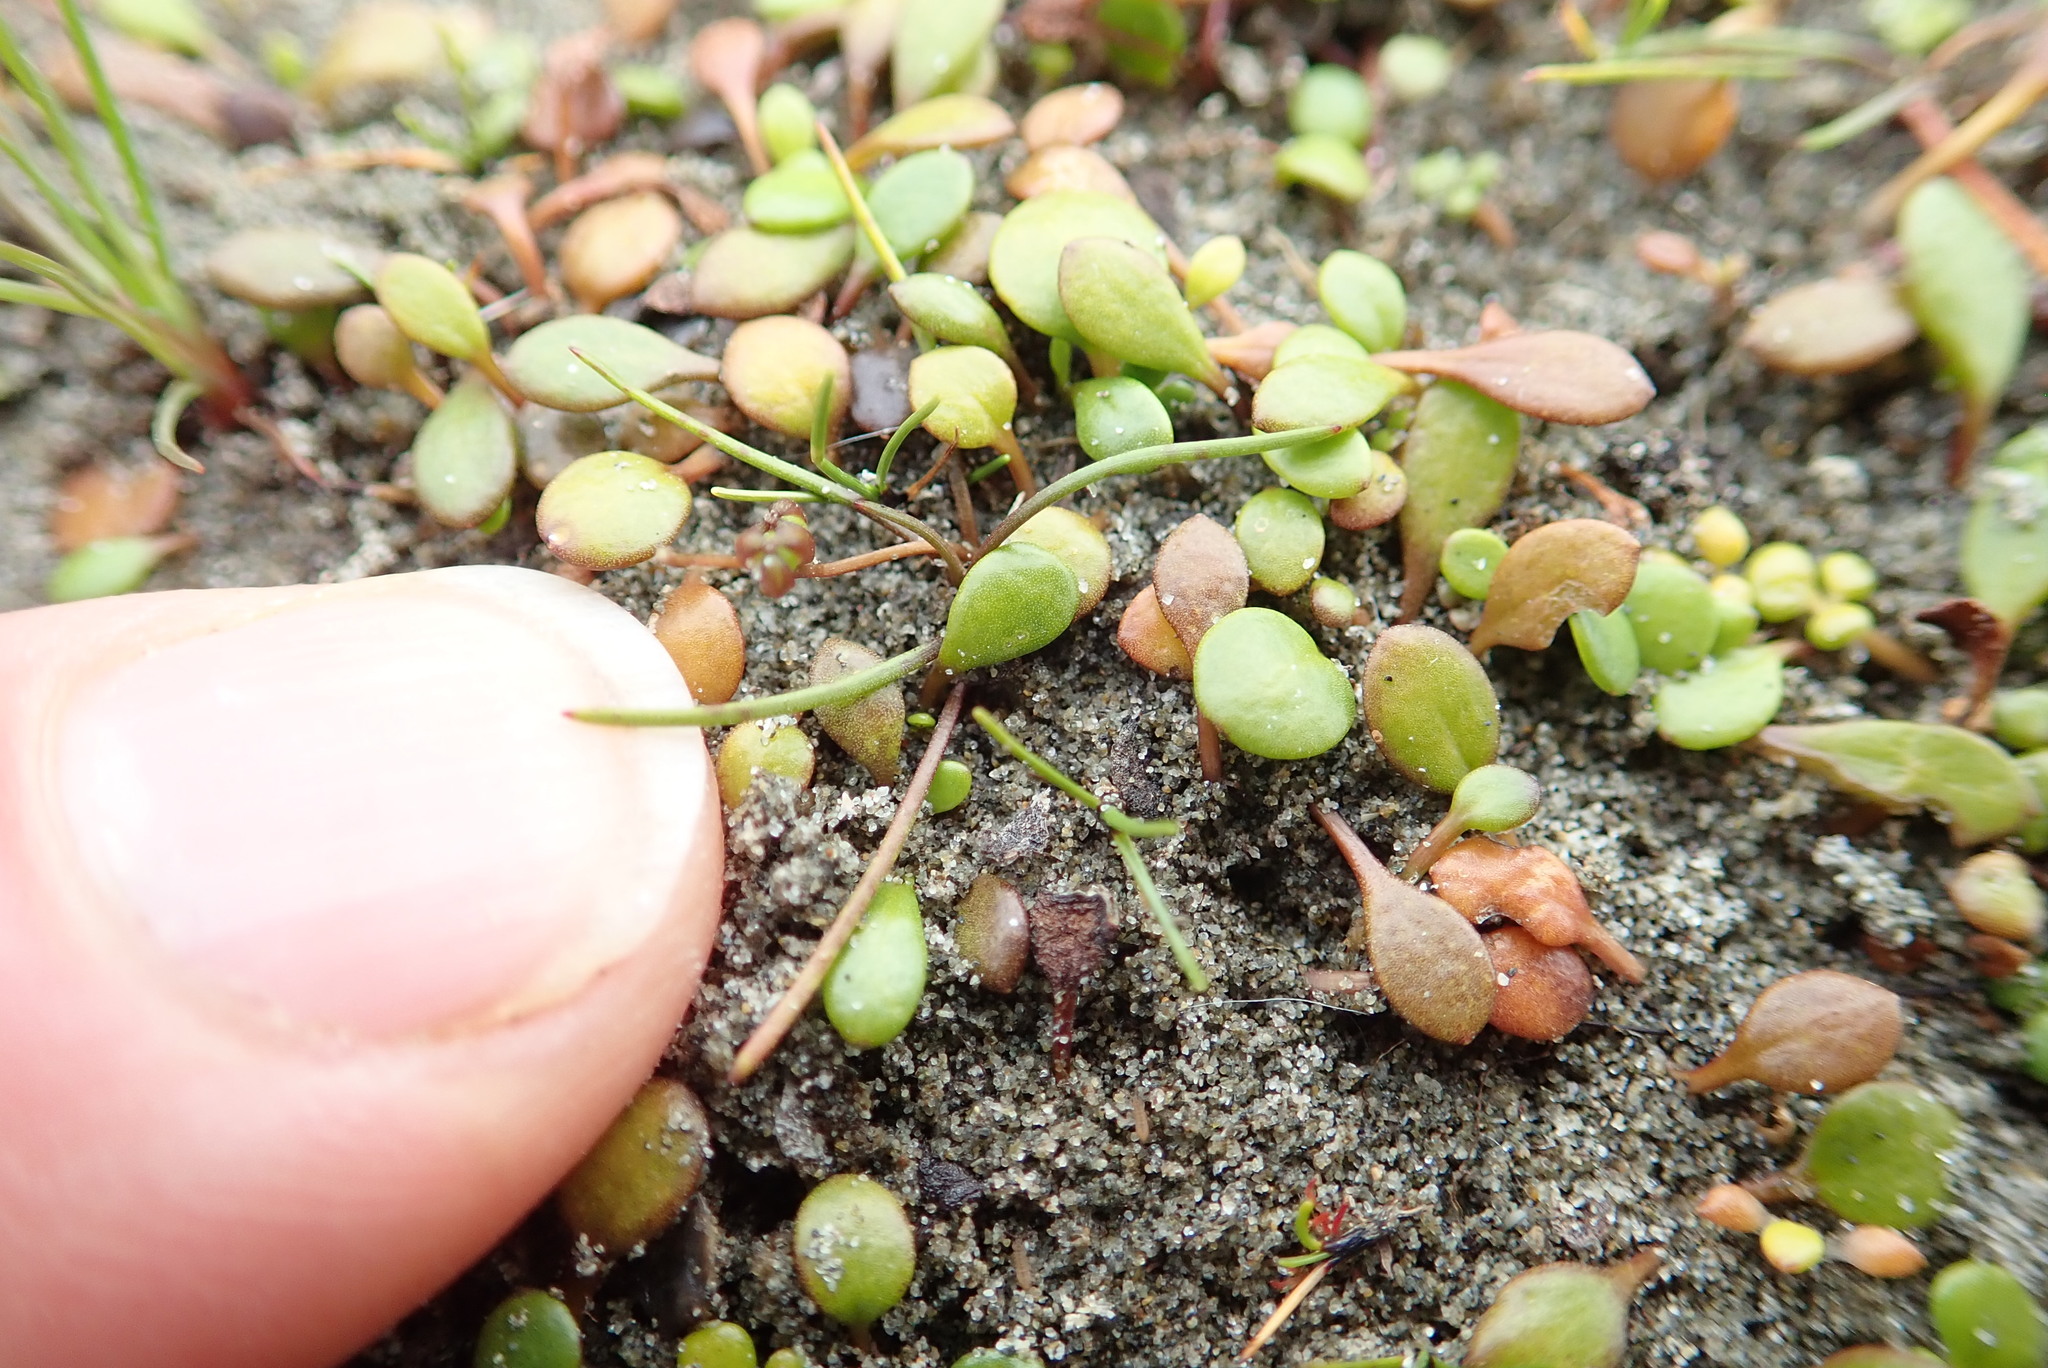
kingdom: Plantae
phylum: Tracheophyta
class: Liliopsida
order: Alismatales
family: Juncaginaceae
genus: Triglochin
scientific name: Triglochin striata
